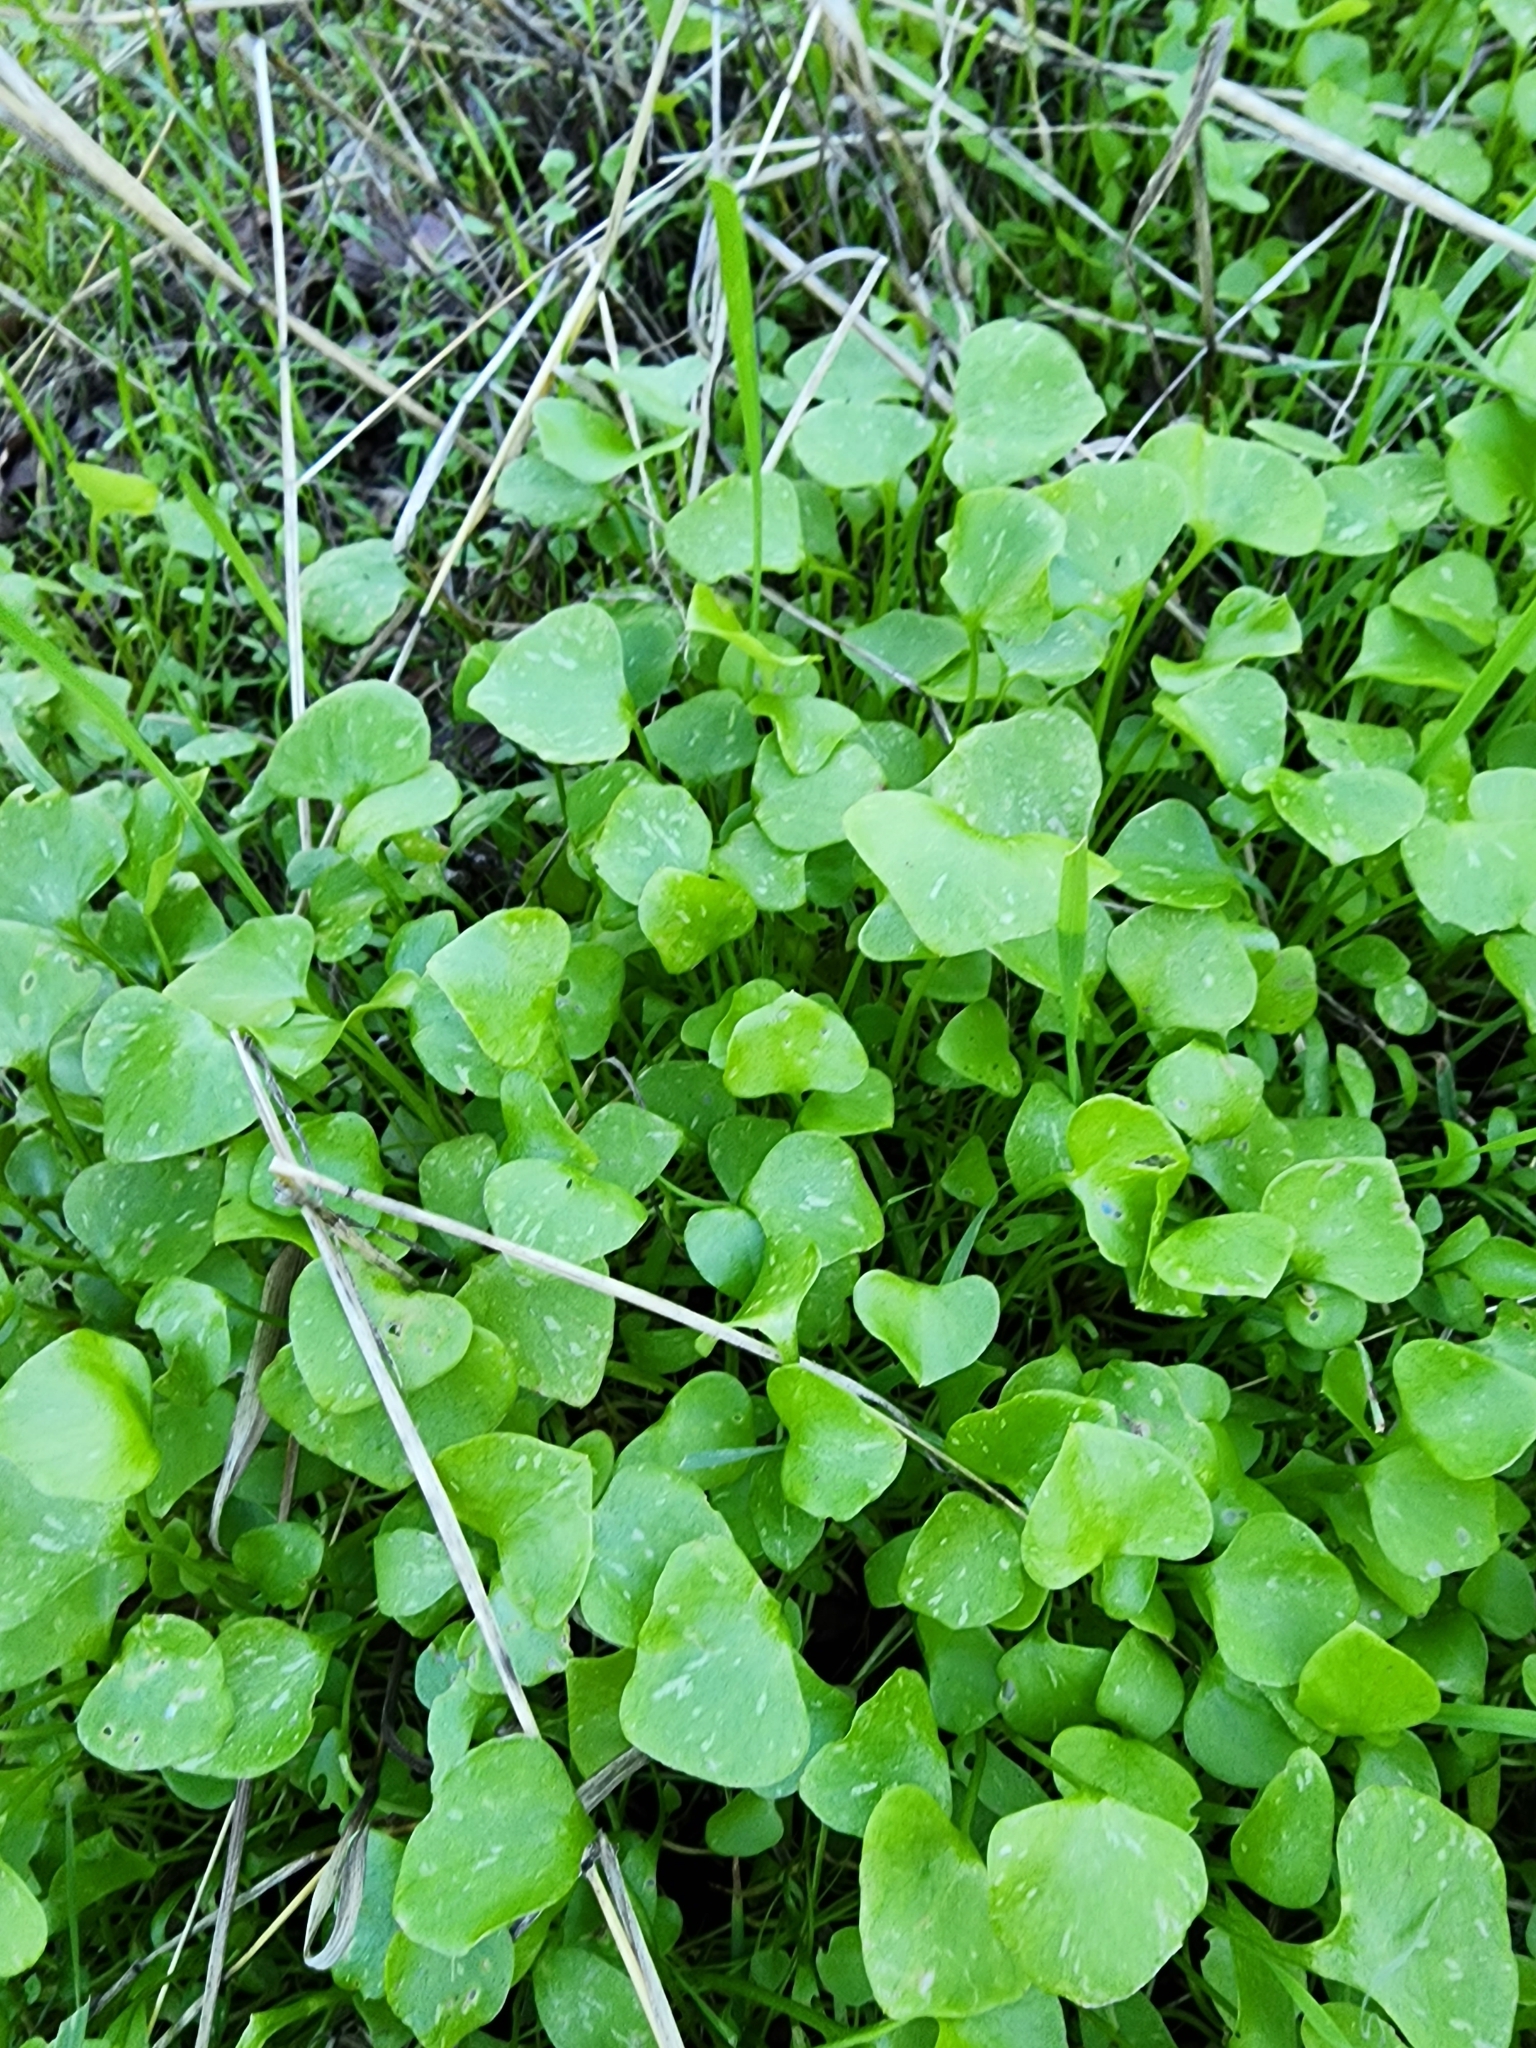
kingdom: Plantae
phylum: Tracheophyta
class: Magnoliopsida
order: Caryophyllales
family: Montiaceae
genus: Claytonia
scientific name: Claytonia perfoliata
